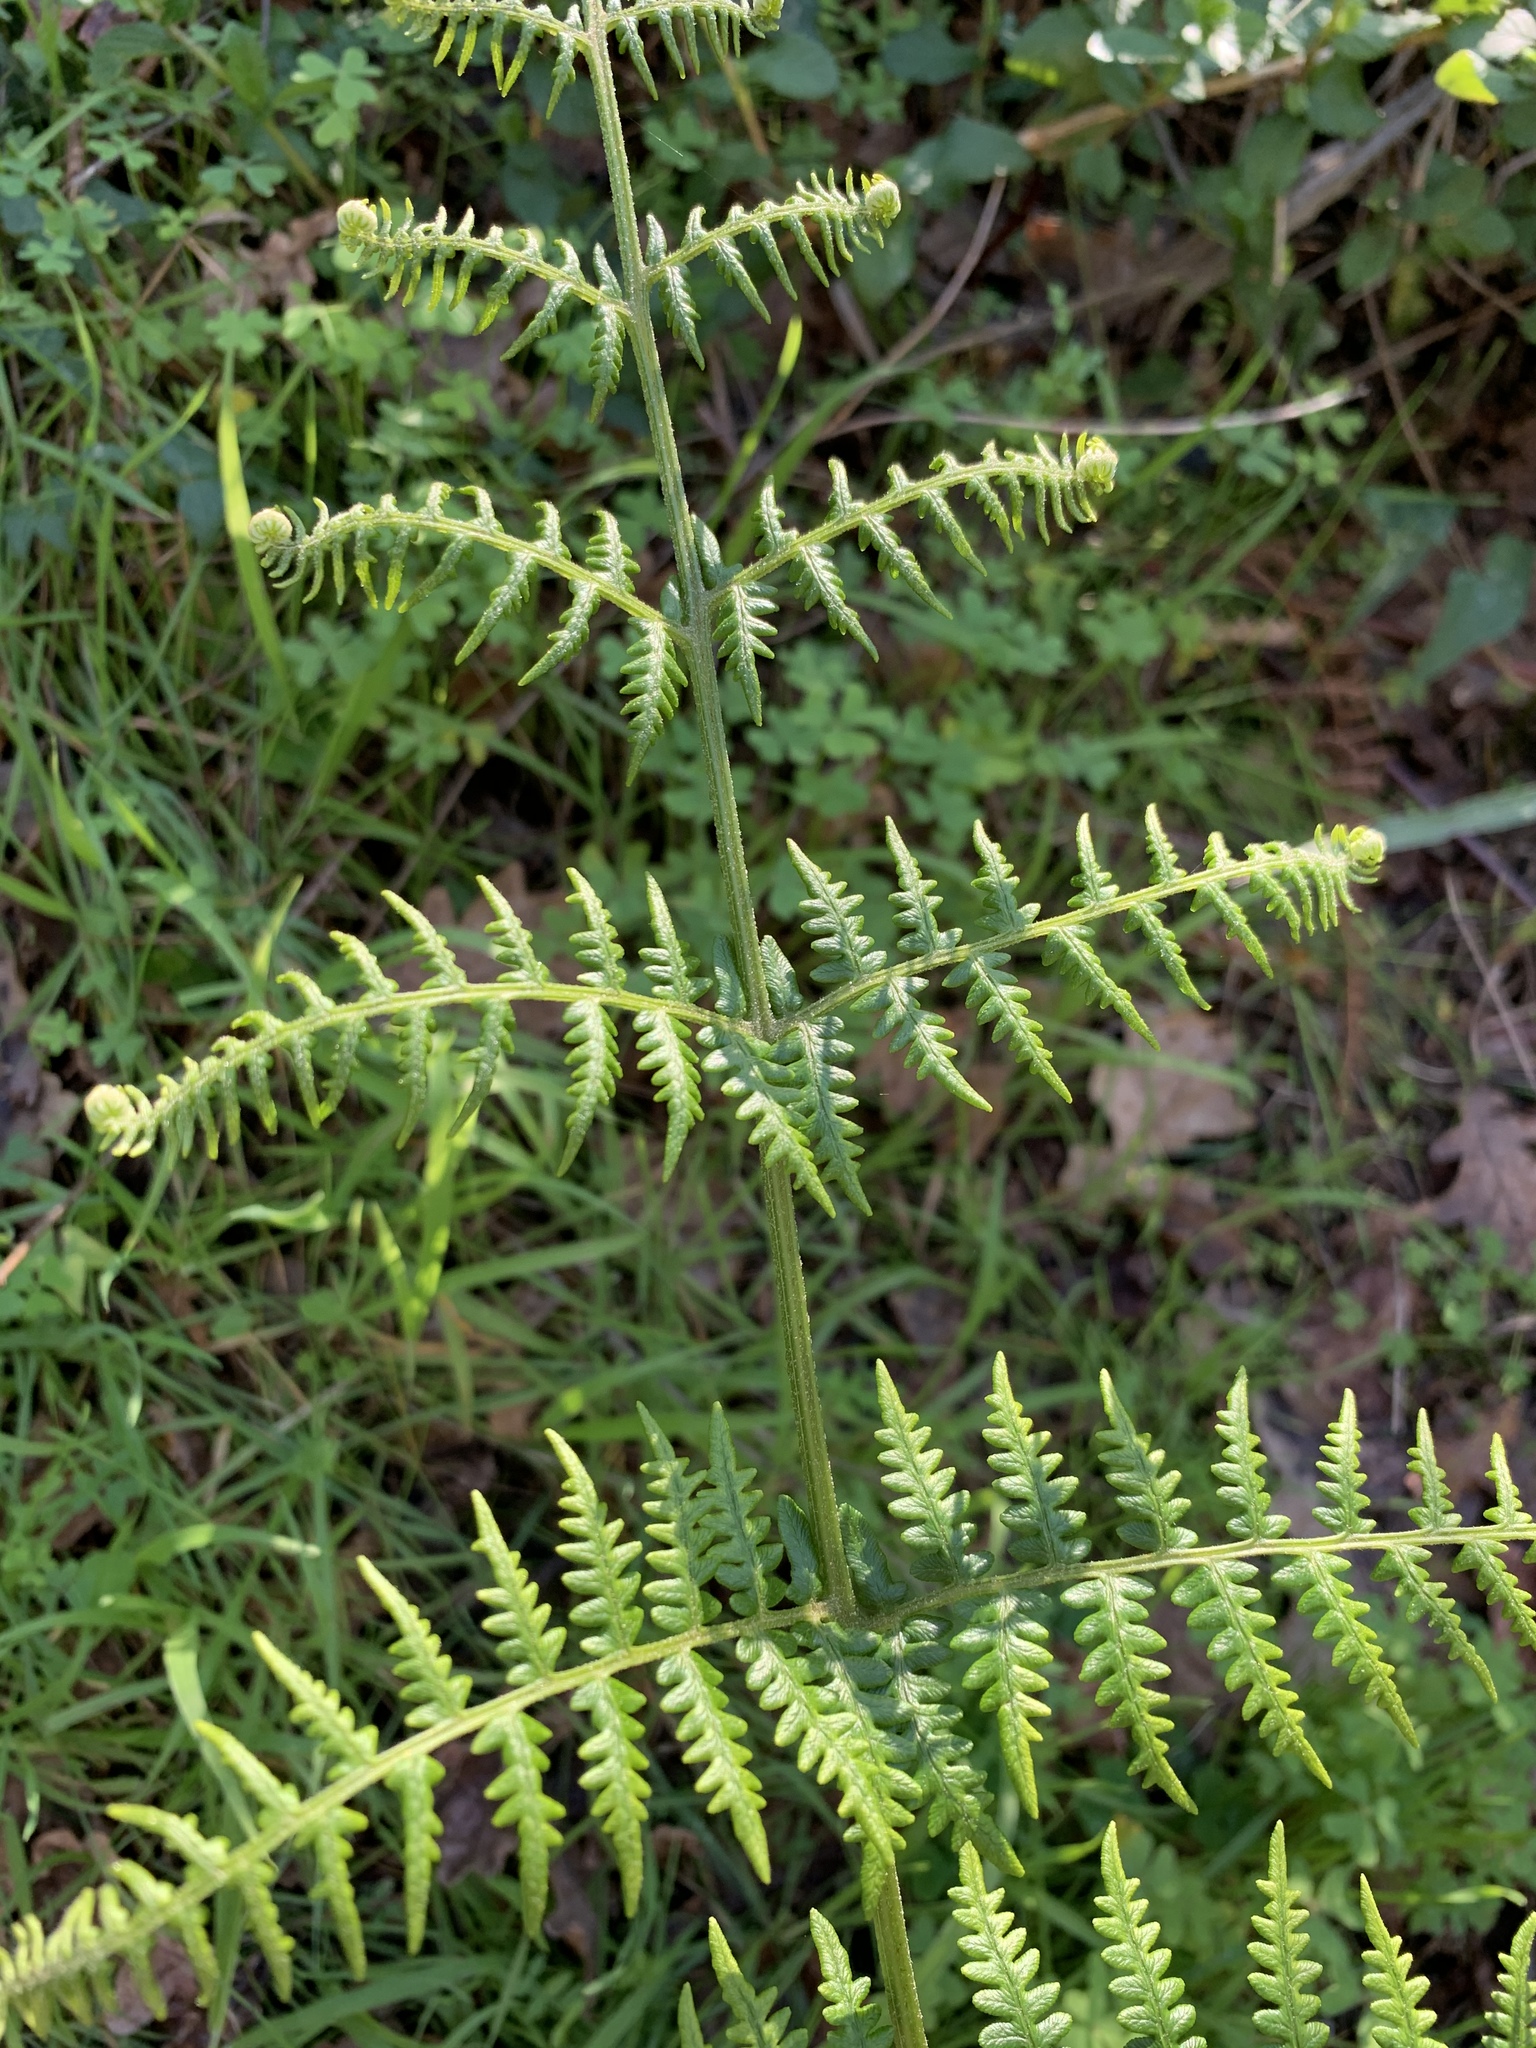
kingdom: Plantae
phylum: Tracheophyta
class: Polypodiopsida
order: Polypodiales
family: Dennstaedtiaceae
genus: Pteridium
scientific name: Pteridium aquilinum
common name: Bracken
